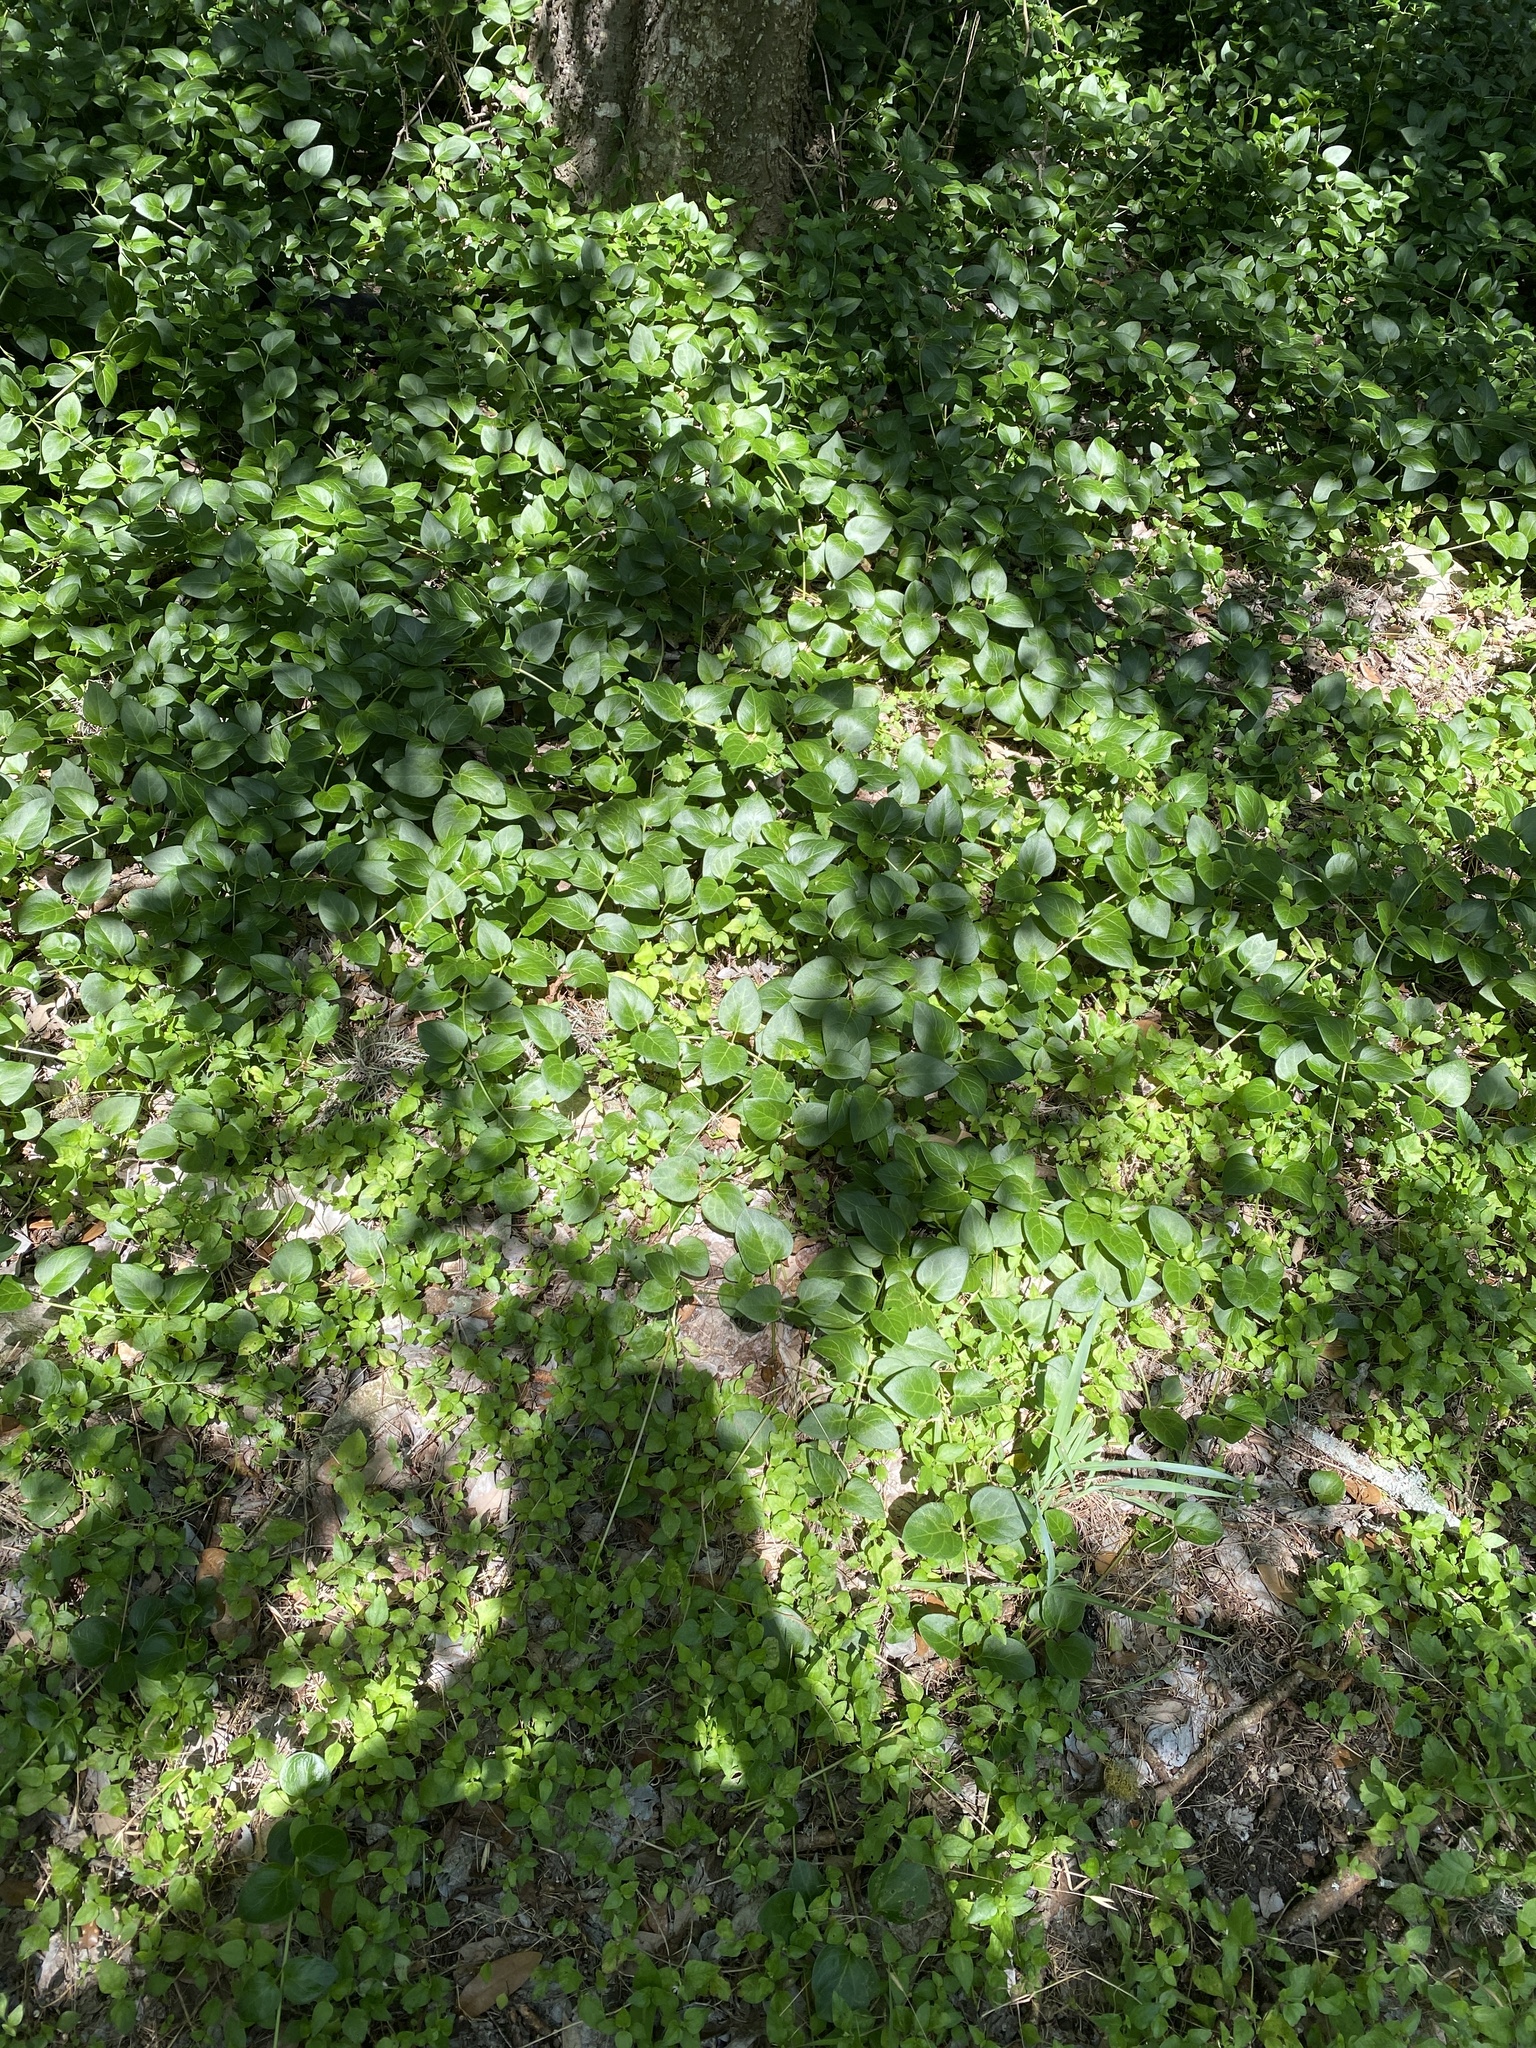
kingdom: Plantae
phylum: Tracheophyta
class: Magnoliopsida
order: Gentianales
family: Apocynaceae
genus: Vinca
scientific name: Vinca major
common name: Greater periwinkle
